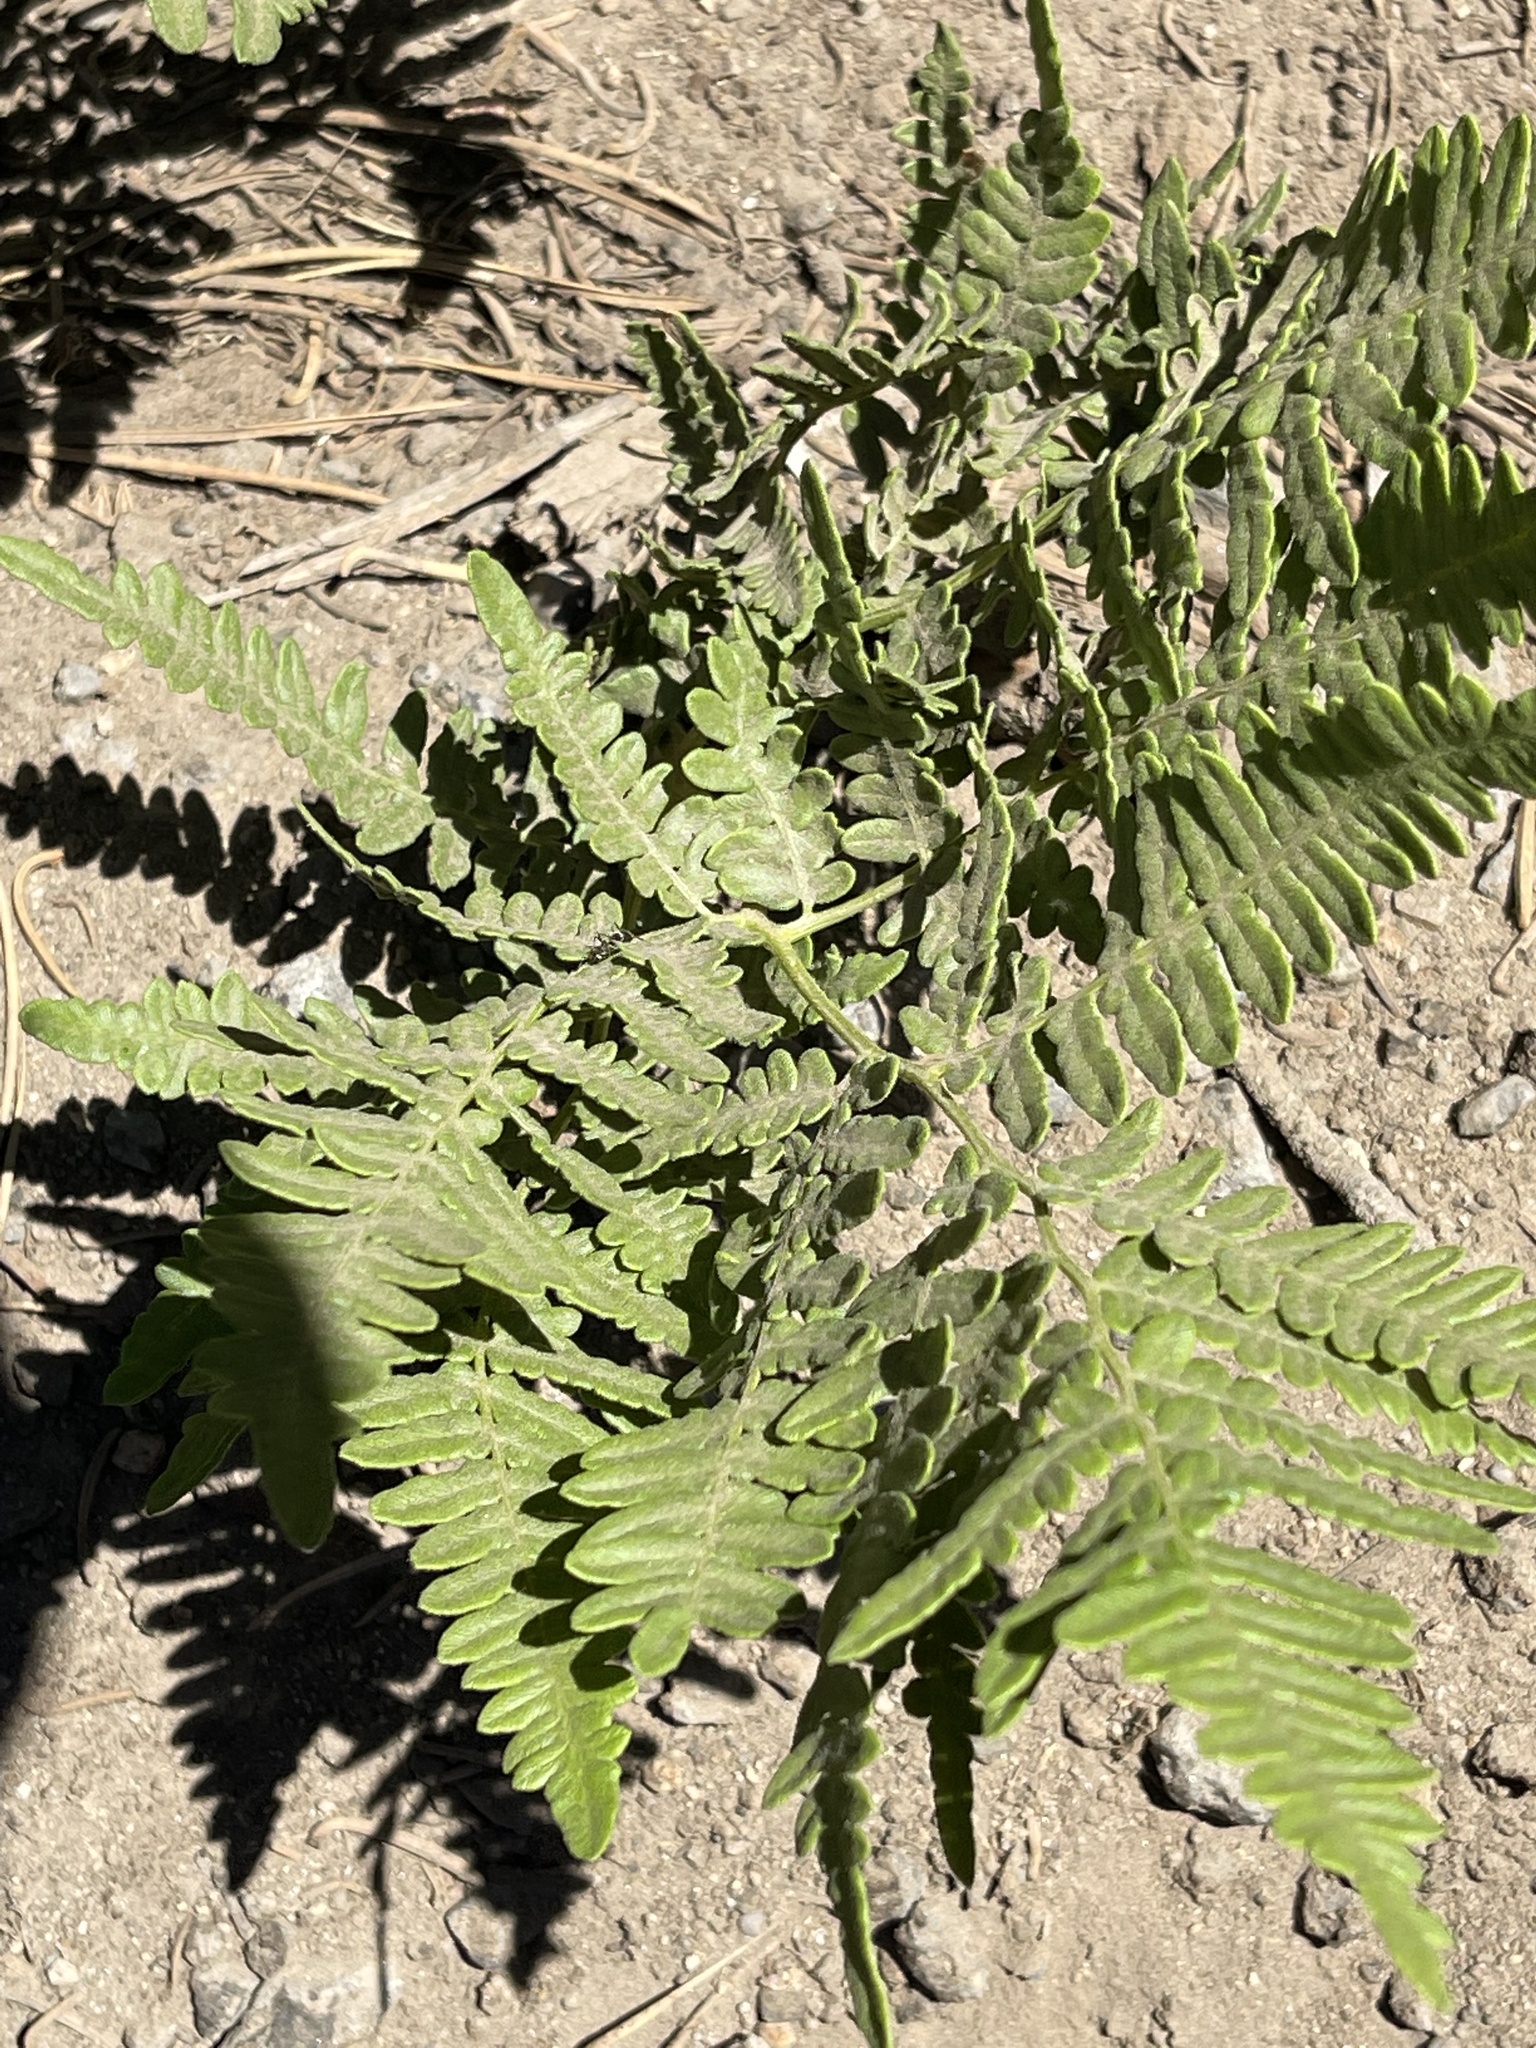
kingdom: Plantae
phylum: Tracheophyta
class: Polypodiopsida
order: Polypodiales
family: Dennstaedtiaceae
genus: Pteridium
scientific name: Pteridium aquilinum
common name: Bracken
